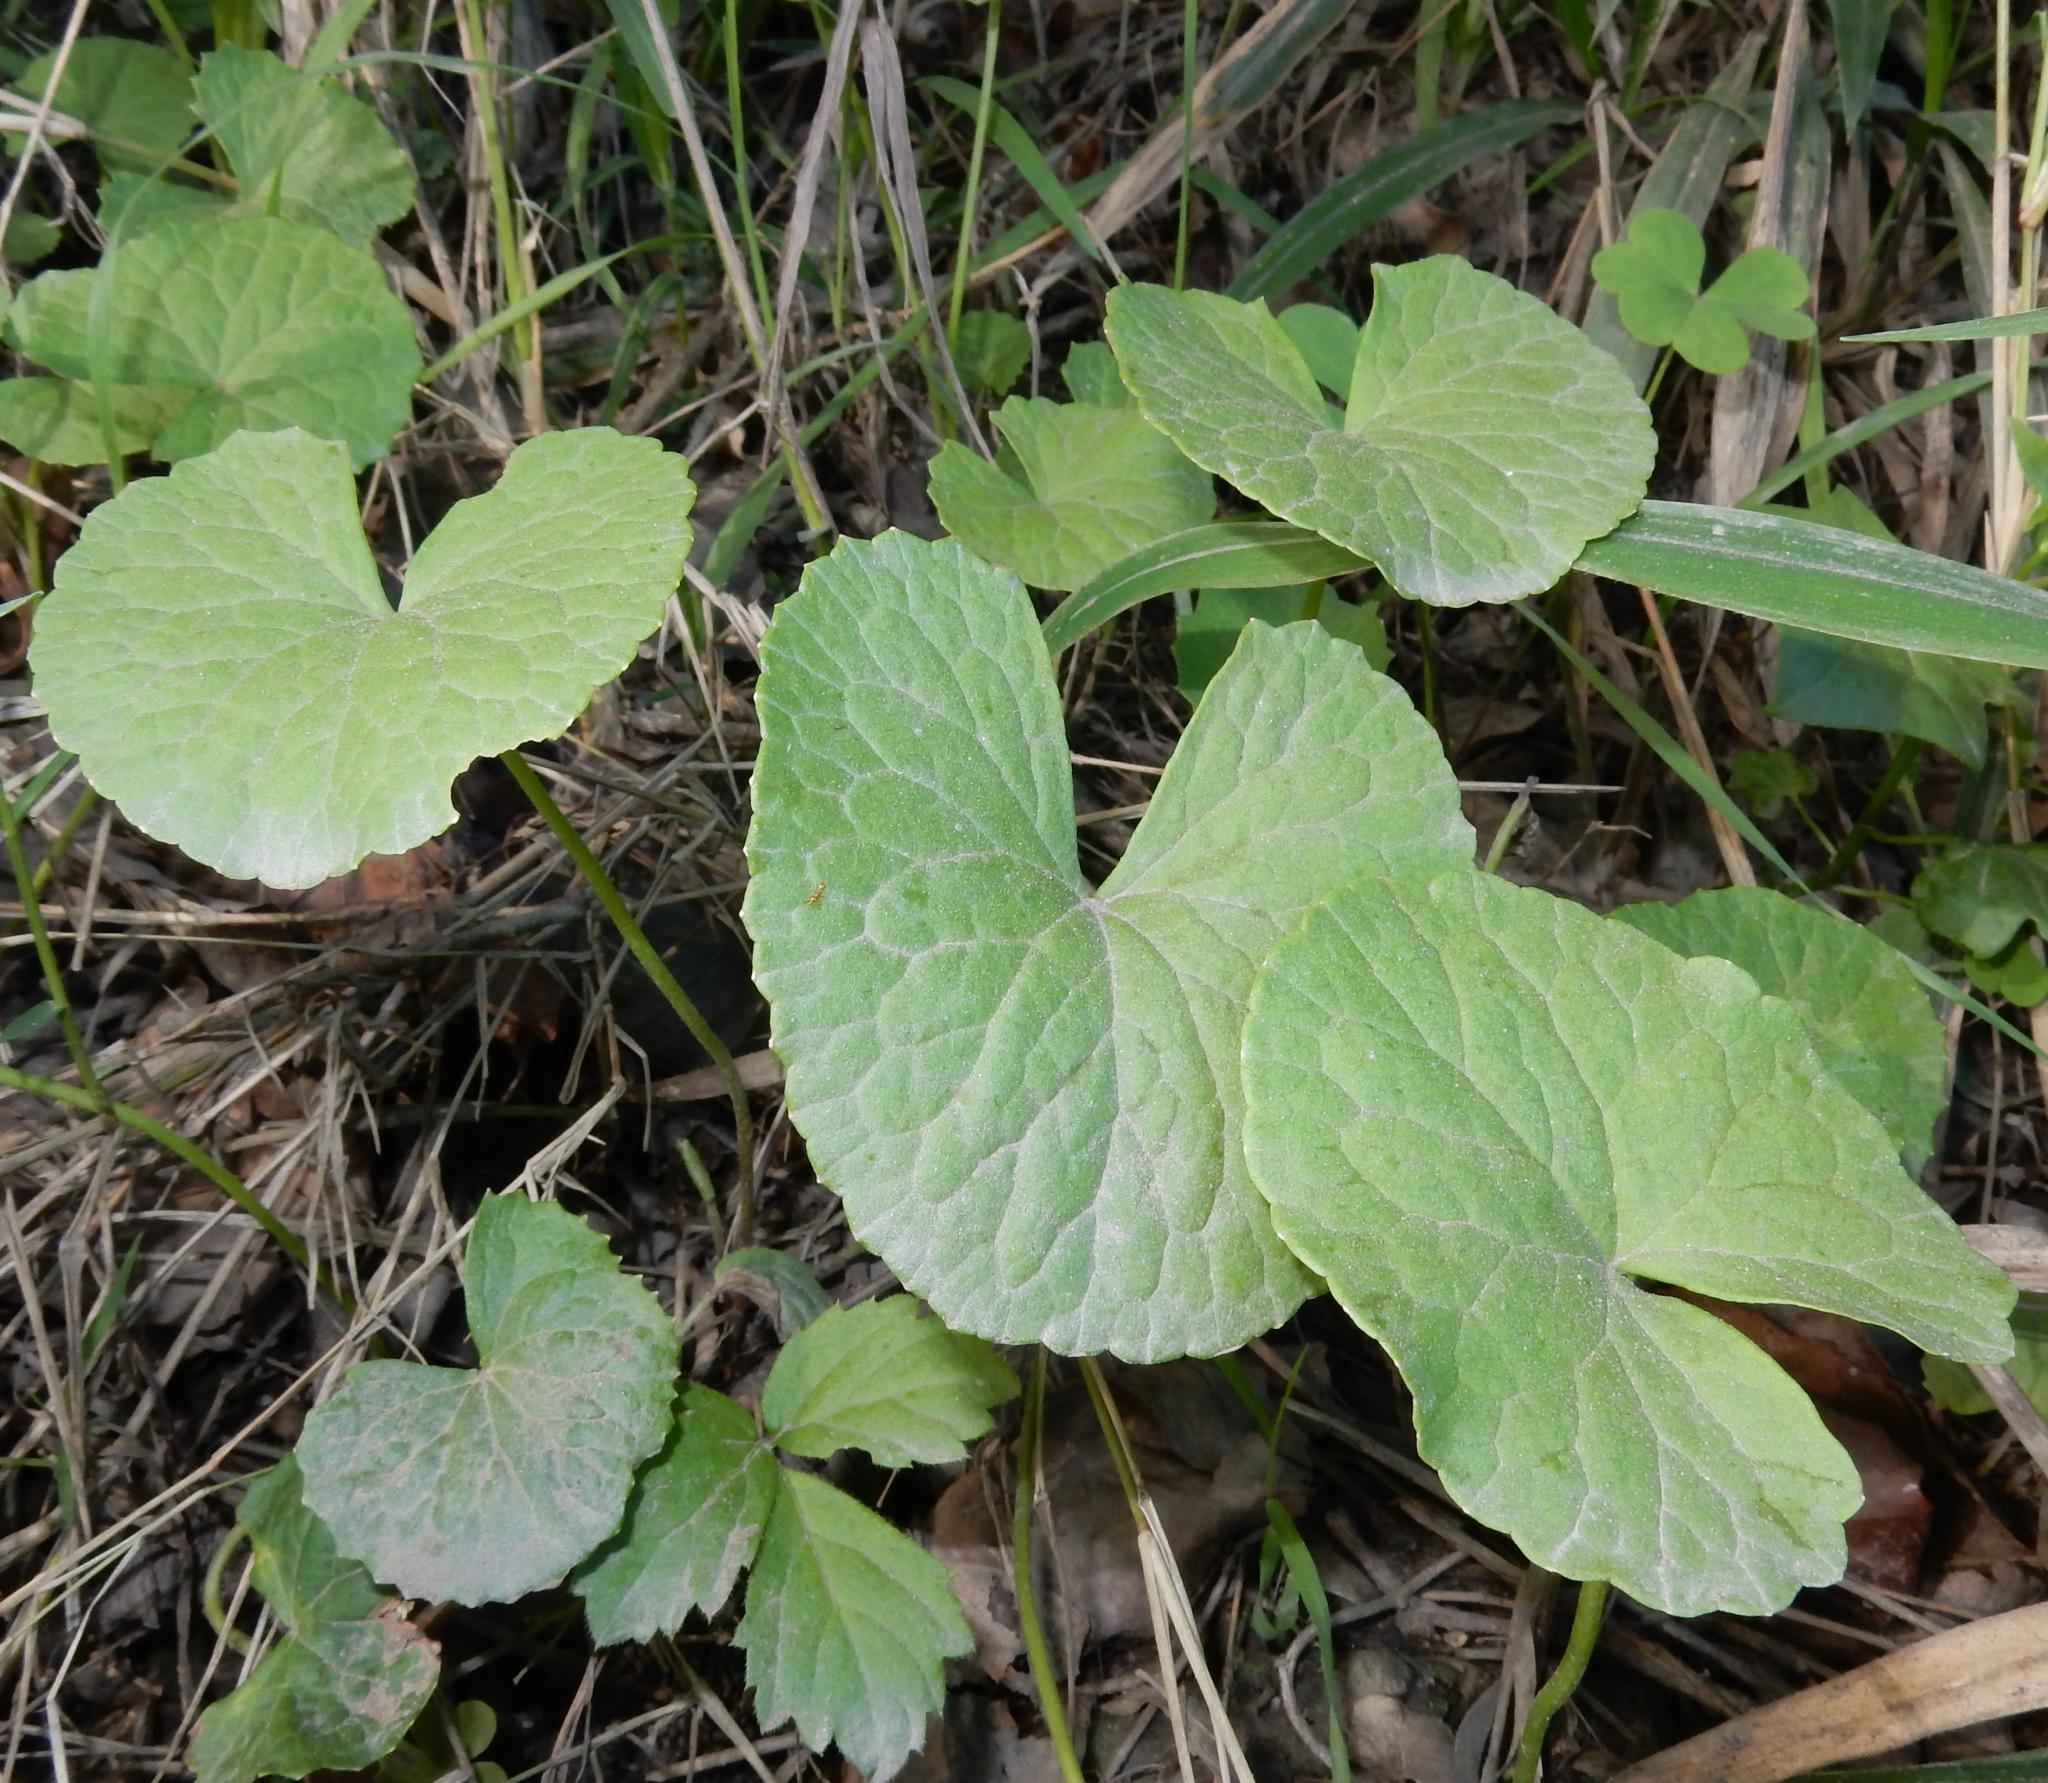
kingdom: Plantae
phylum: Tracheophyta
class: Magnoliopsida
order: Apiales
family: Apiaceae
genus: Centella
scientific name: Centella asiatica
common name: Spadeleaf
